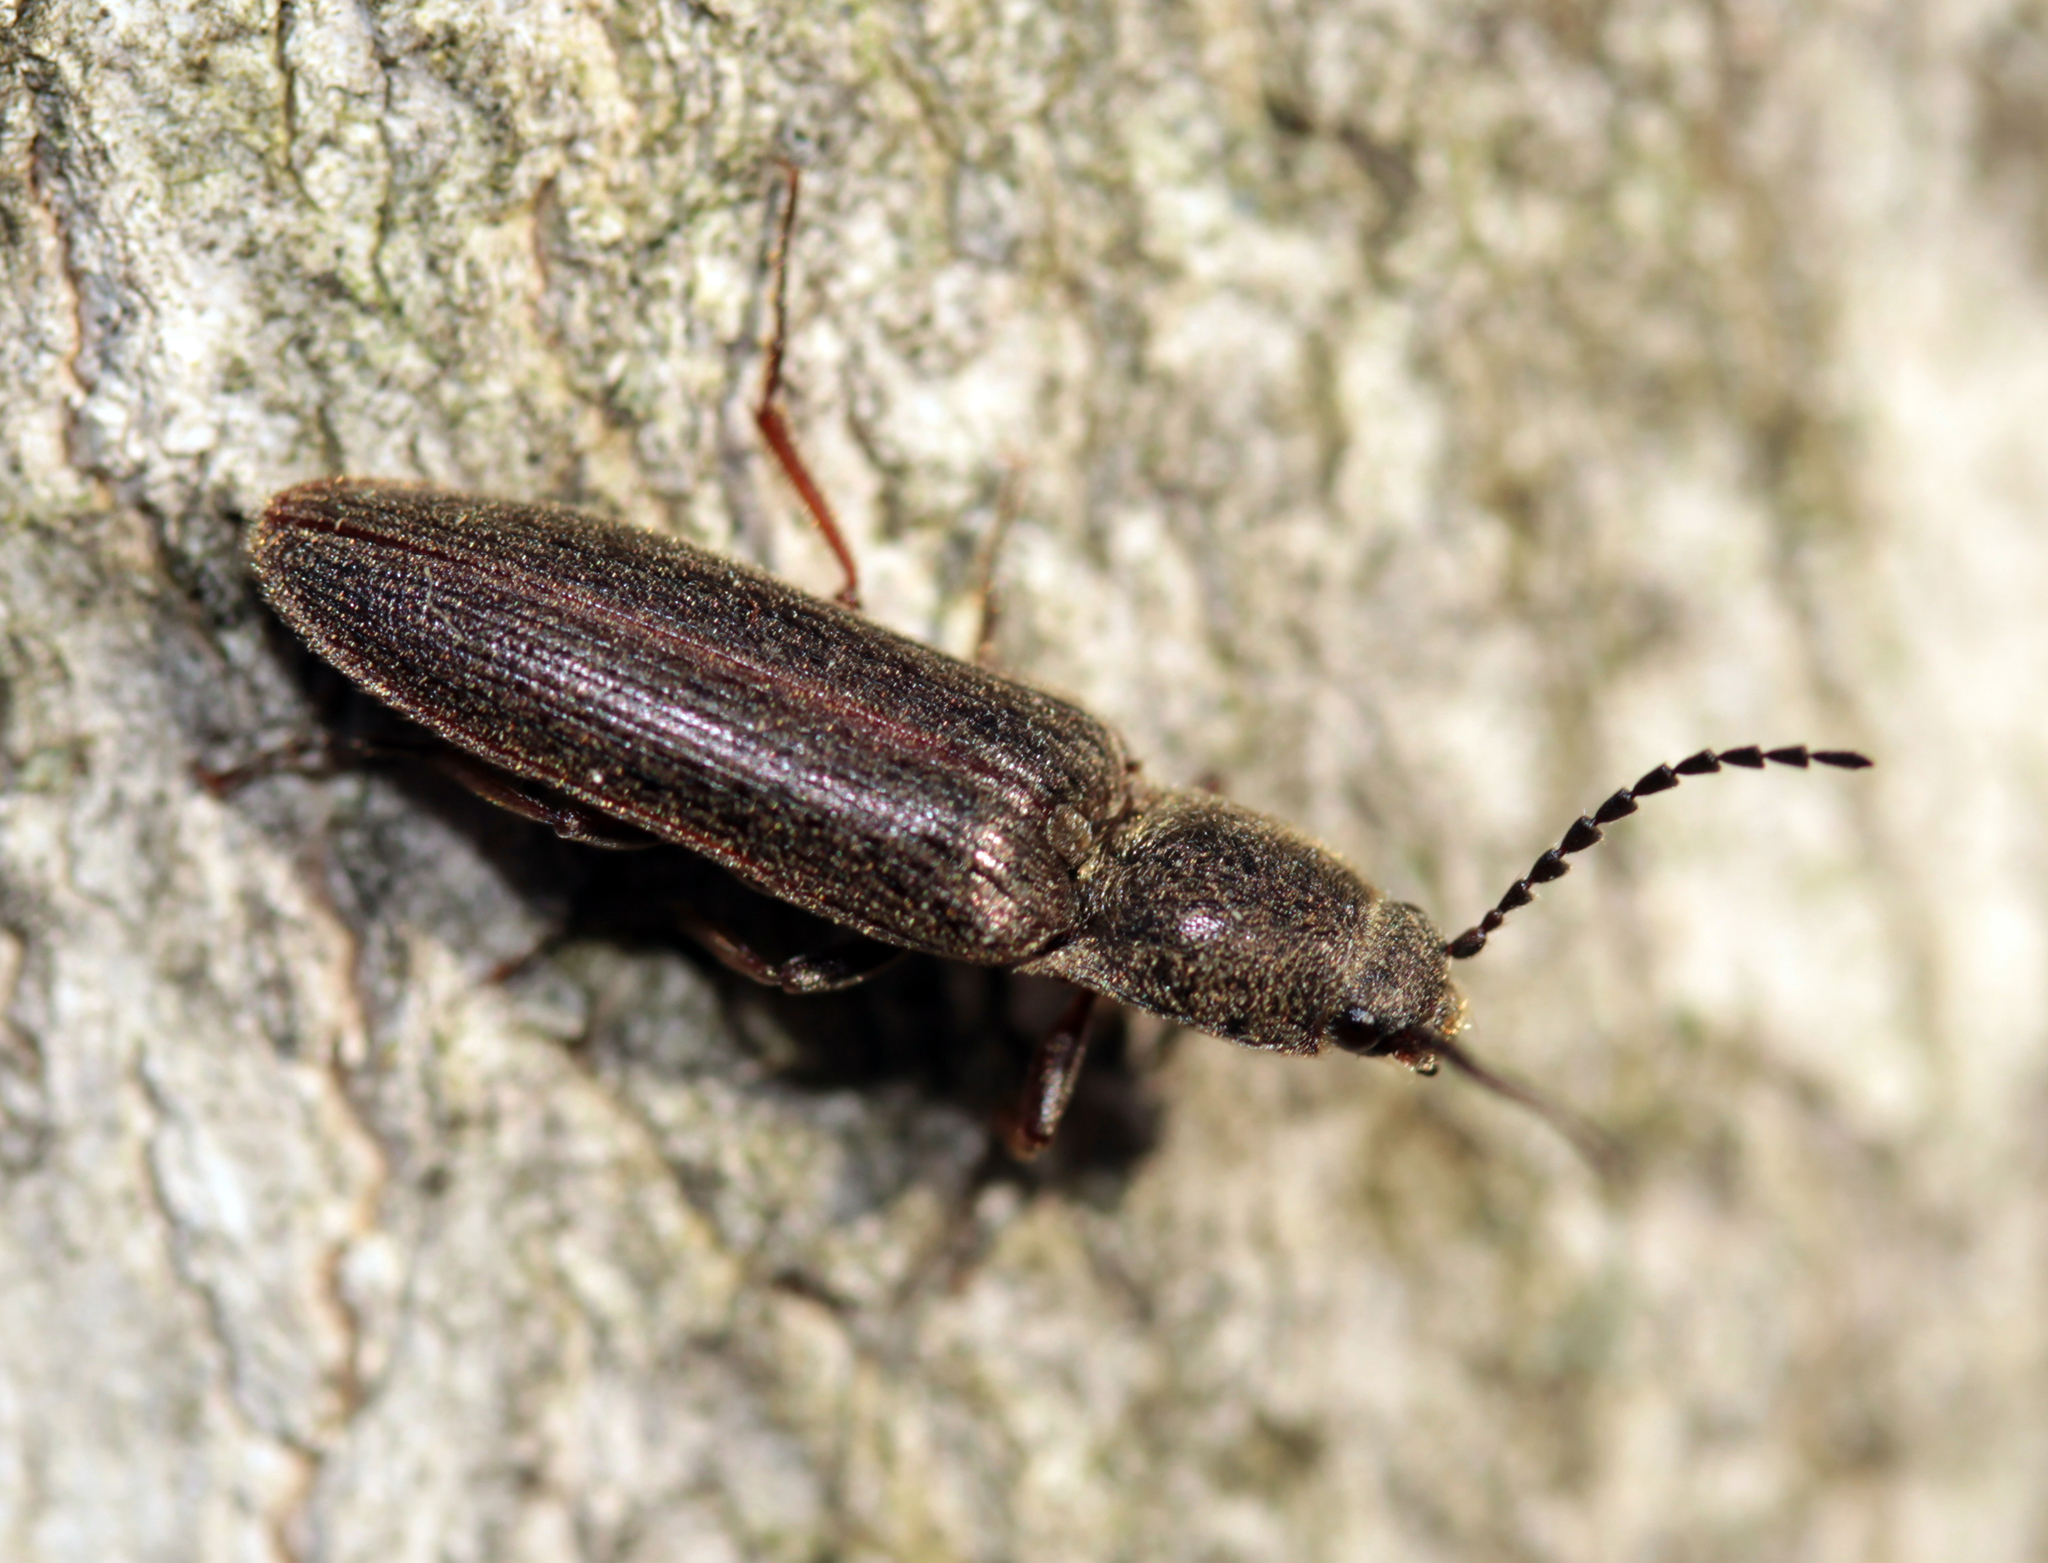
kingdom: Animalia
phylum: Arthropoda
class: Insecta
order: Coleoptera
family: Elateridae
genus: Sylvanelater
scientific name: Sylvanelater cylindriformis
